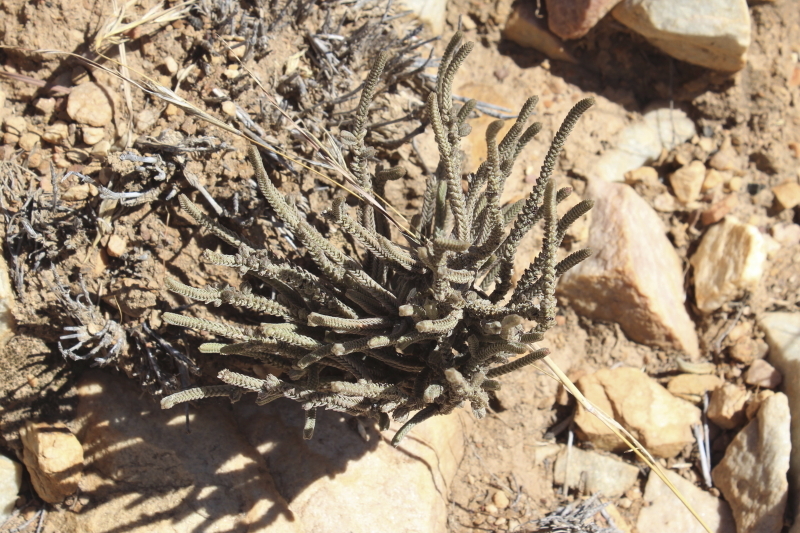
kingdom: Plantae
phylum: Tracheophyta
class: Magnoliopsida
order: Saxifragales
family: Crassulaceae
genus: Crassula
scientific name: Crassula muscosa
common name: Toy-cypress
